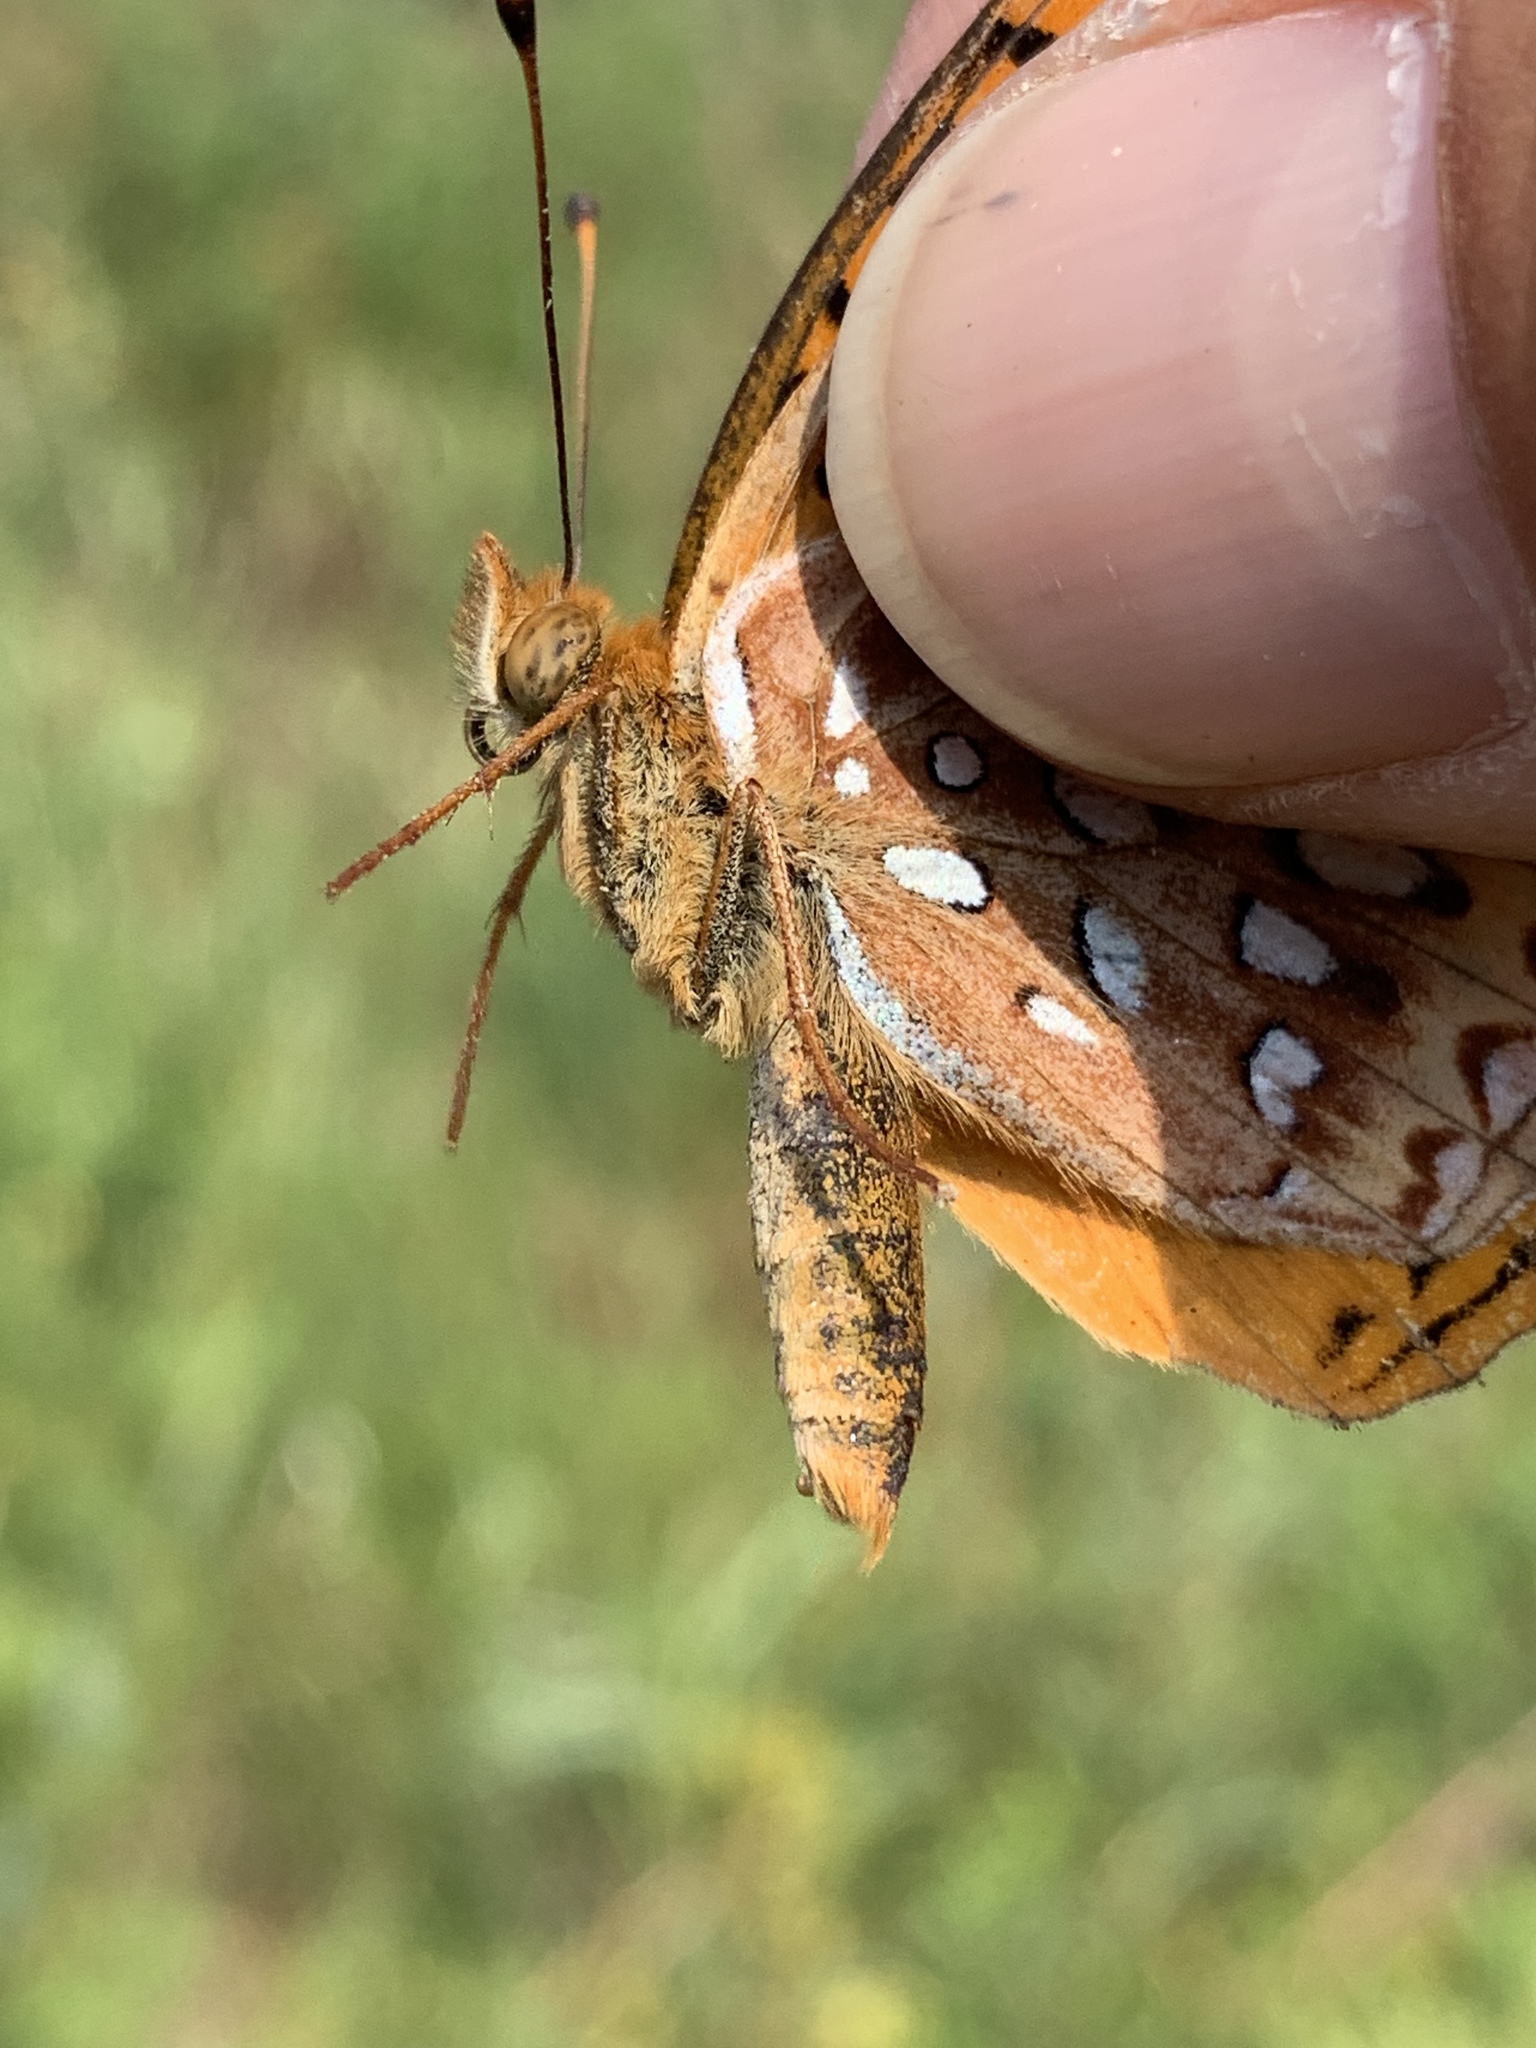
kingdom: Animalia
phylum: Arthropoda
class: Insecta
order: Lepidoptera
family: Nymphalidae
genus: Speyeria
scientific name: Speyeria aphrodite
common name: Aphrodite friitllary
